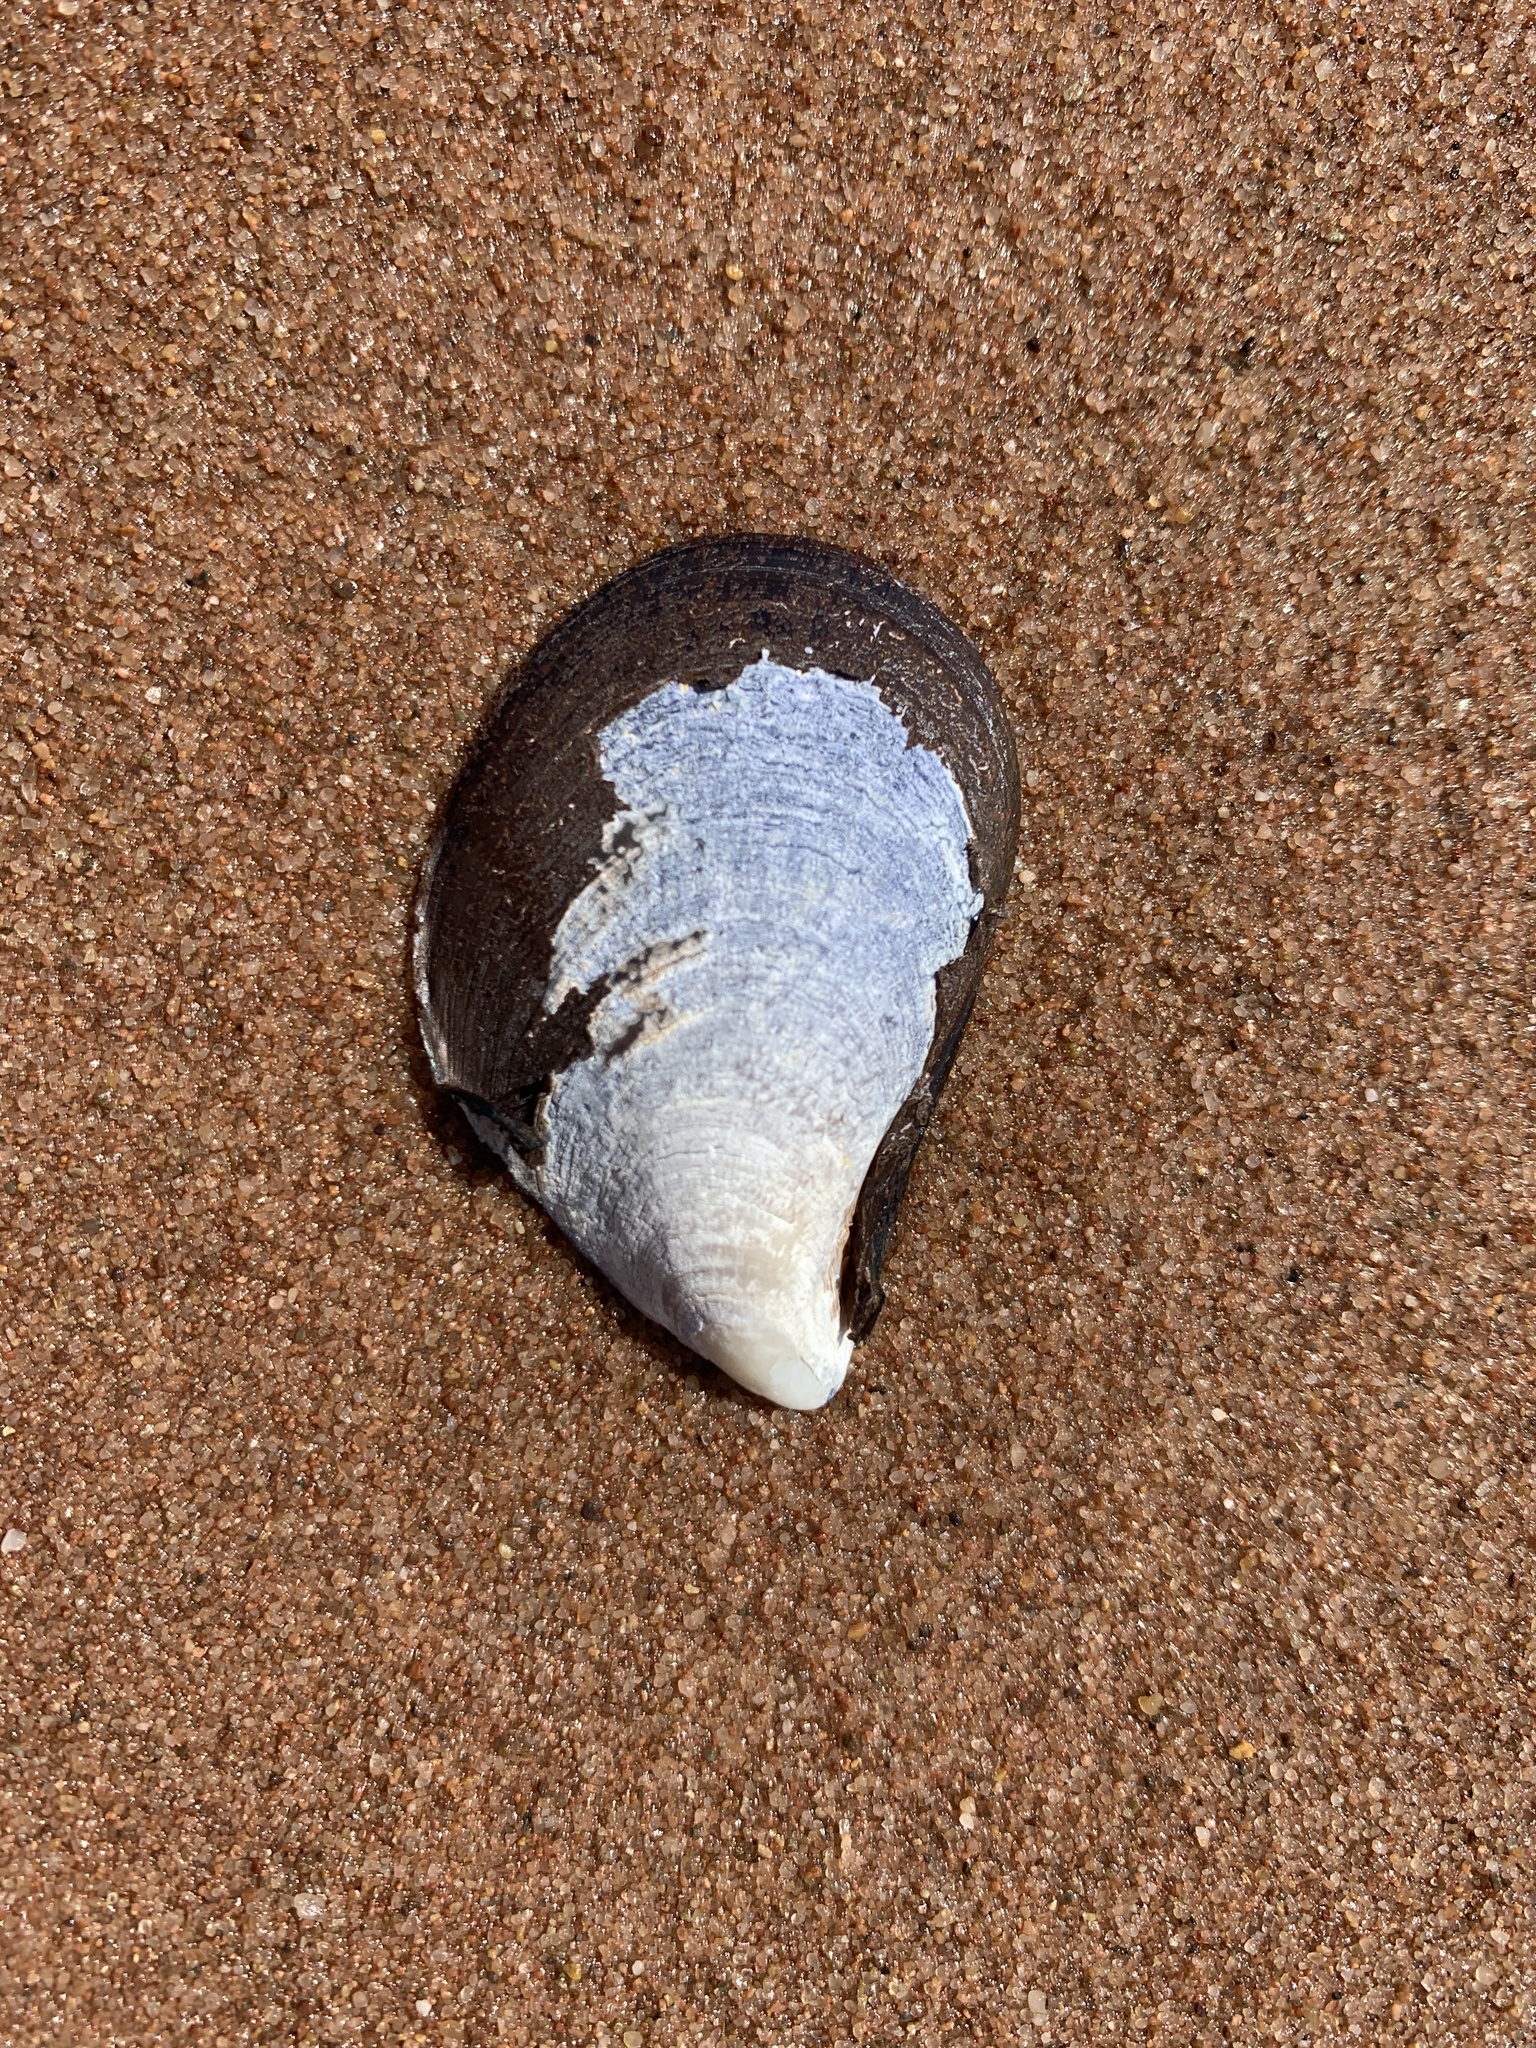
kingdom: Animalia
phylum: Mollusca
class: Bivalvia
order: Mytilida
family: Mytilidae
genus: Mytilus
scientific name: Mytilus
